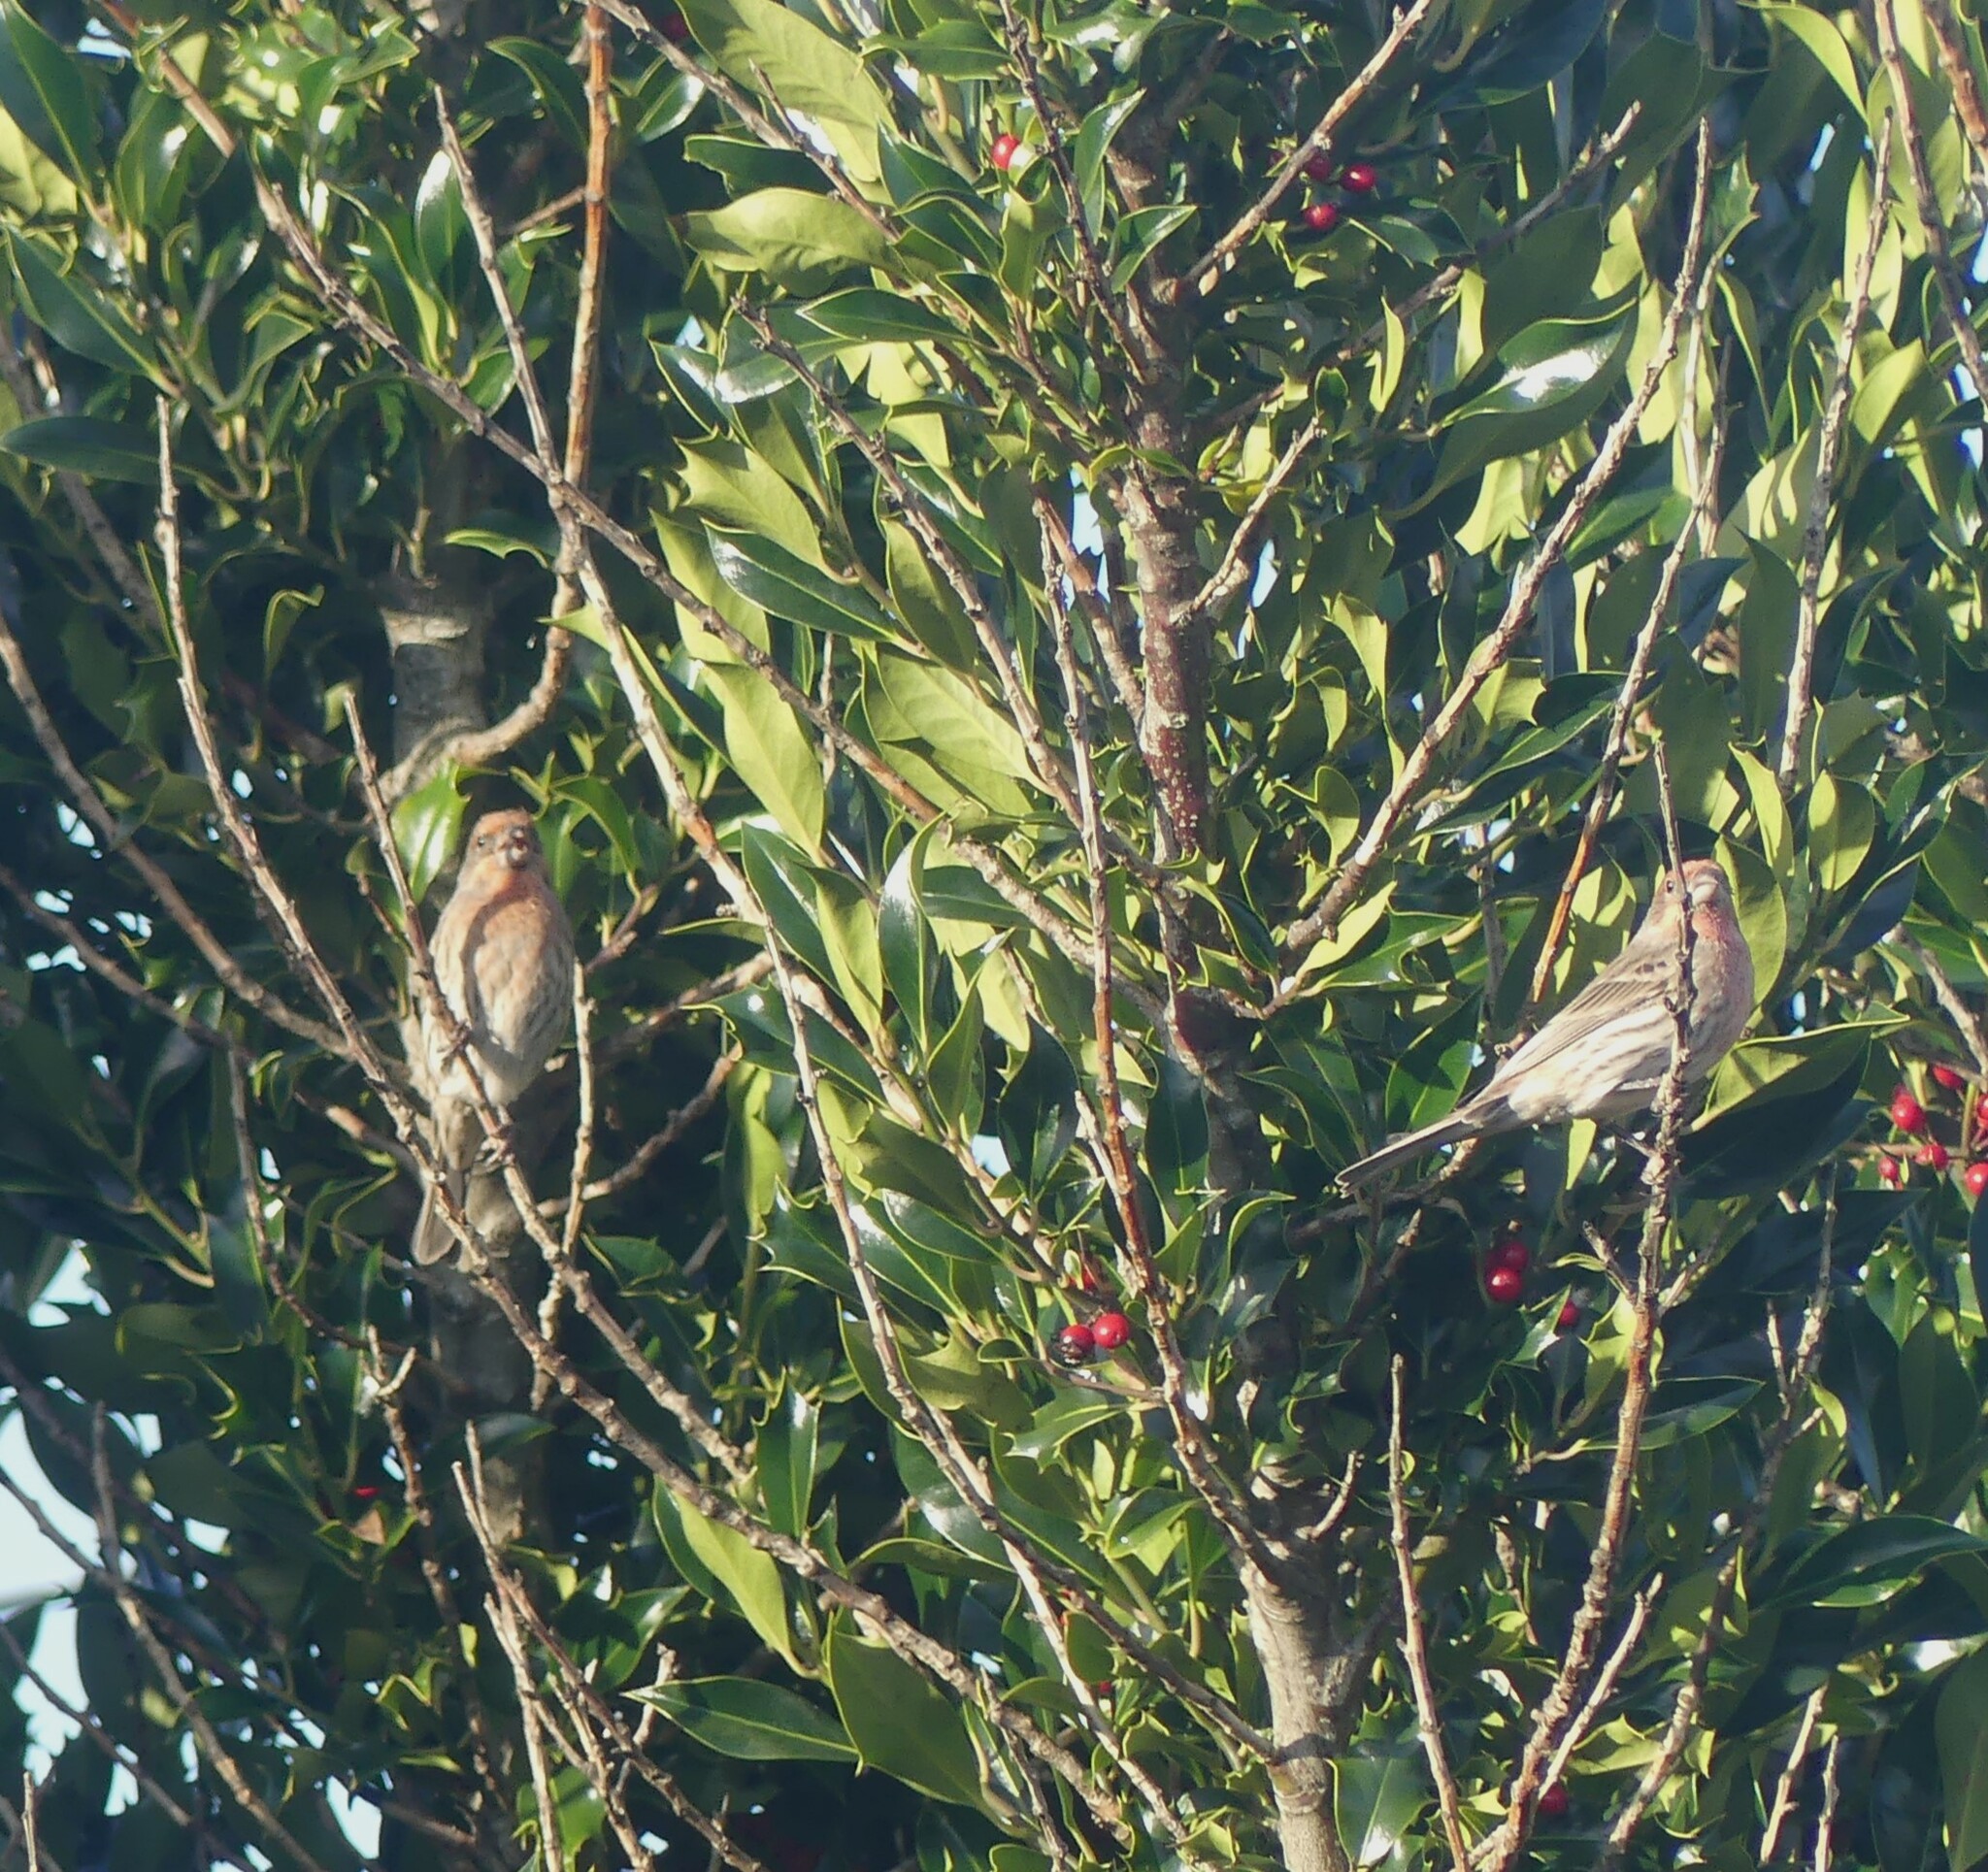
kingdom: Animalia
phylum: Chordata
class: Aves
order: Passeriformes
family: Fringillidae
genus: Haemorhous
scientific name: Haemorhous mexicanus
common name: House finch
